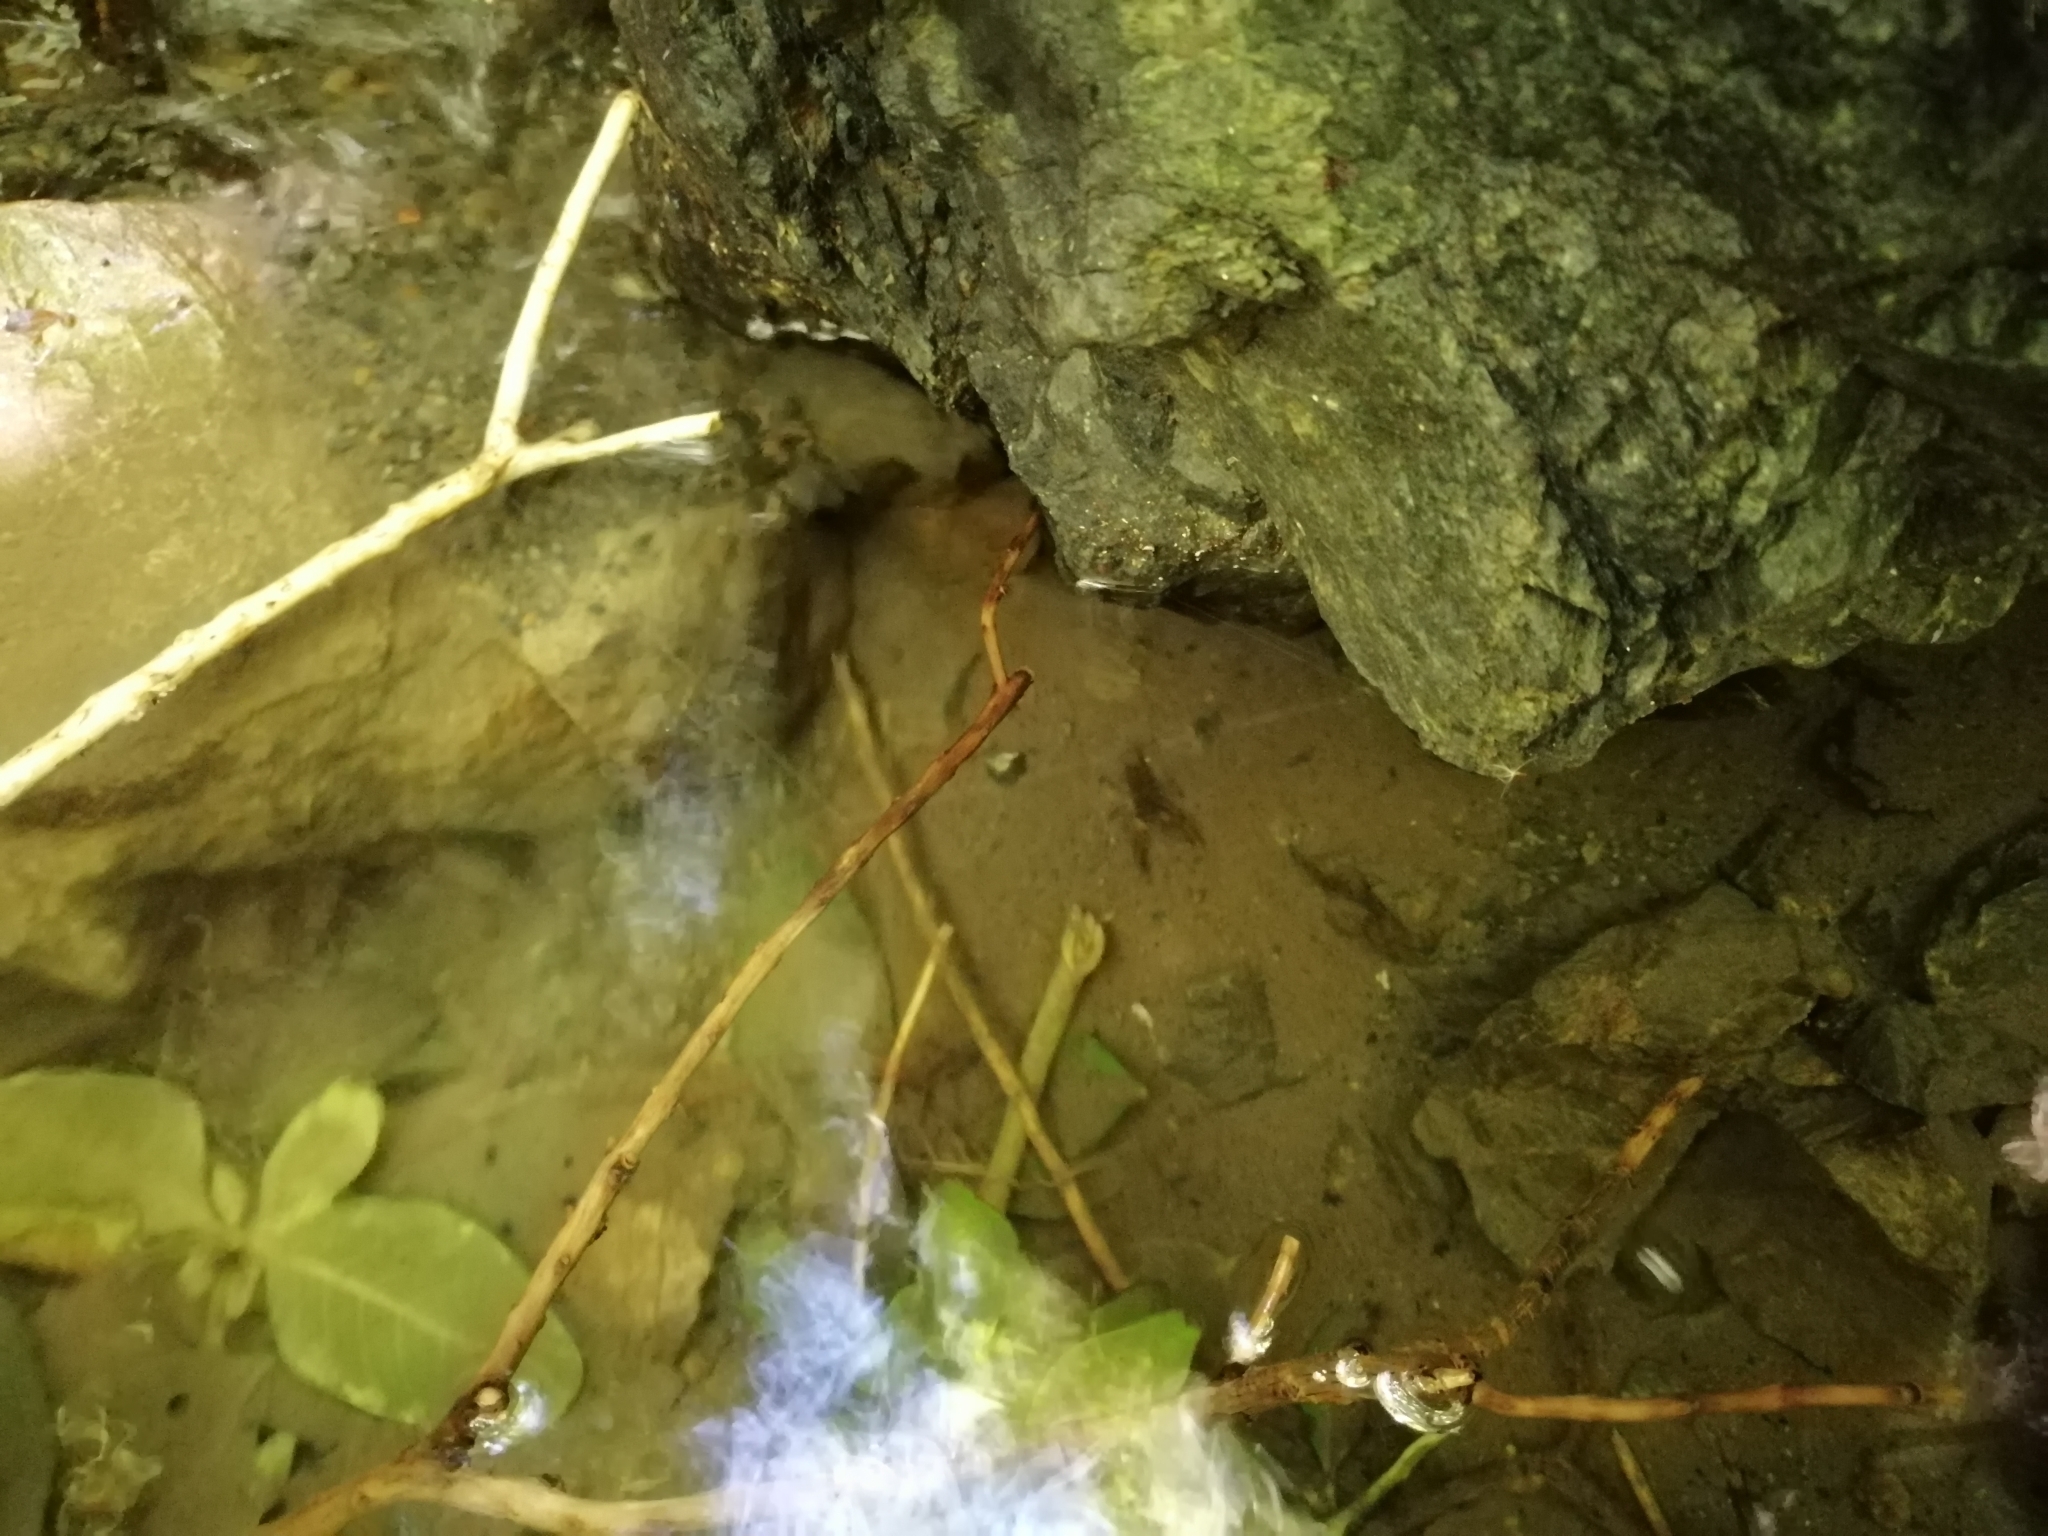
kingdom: Animalia
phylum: Arthropoda
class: Malacostraca
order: Decapoda
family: Parastacidae
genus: Paranephrops
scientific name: Paranephrops planifrons
